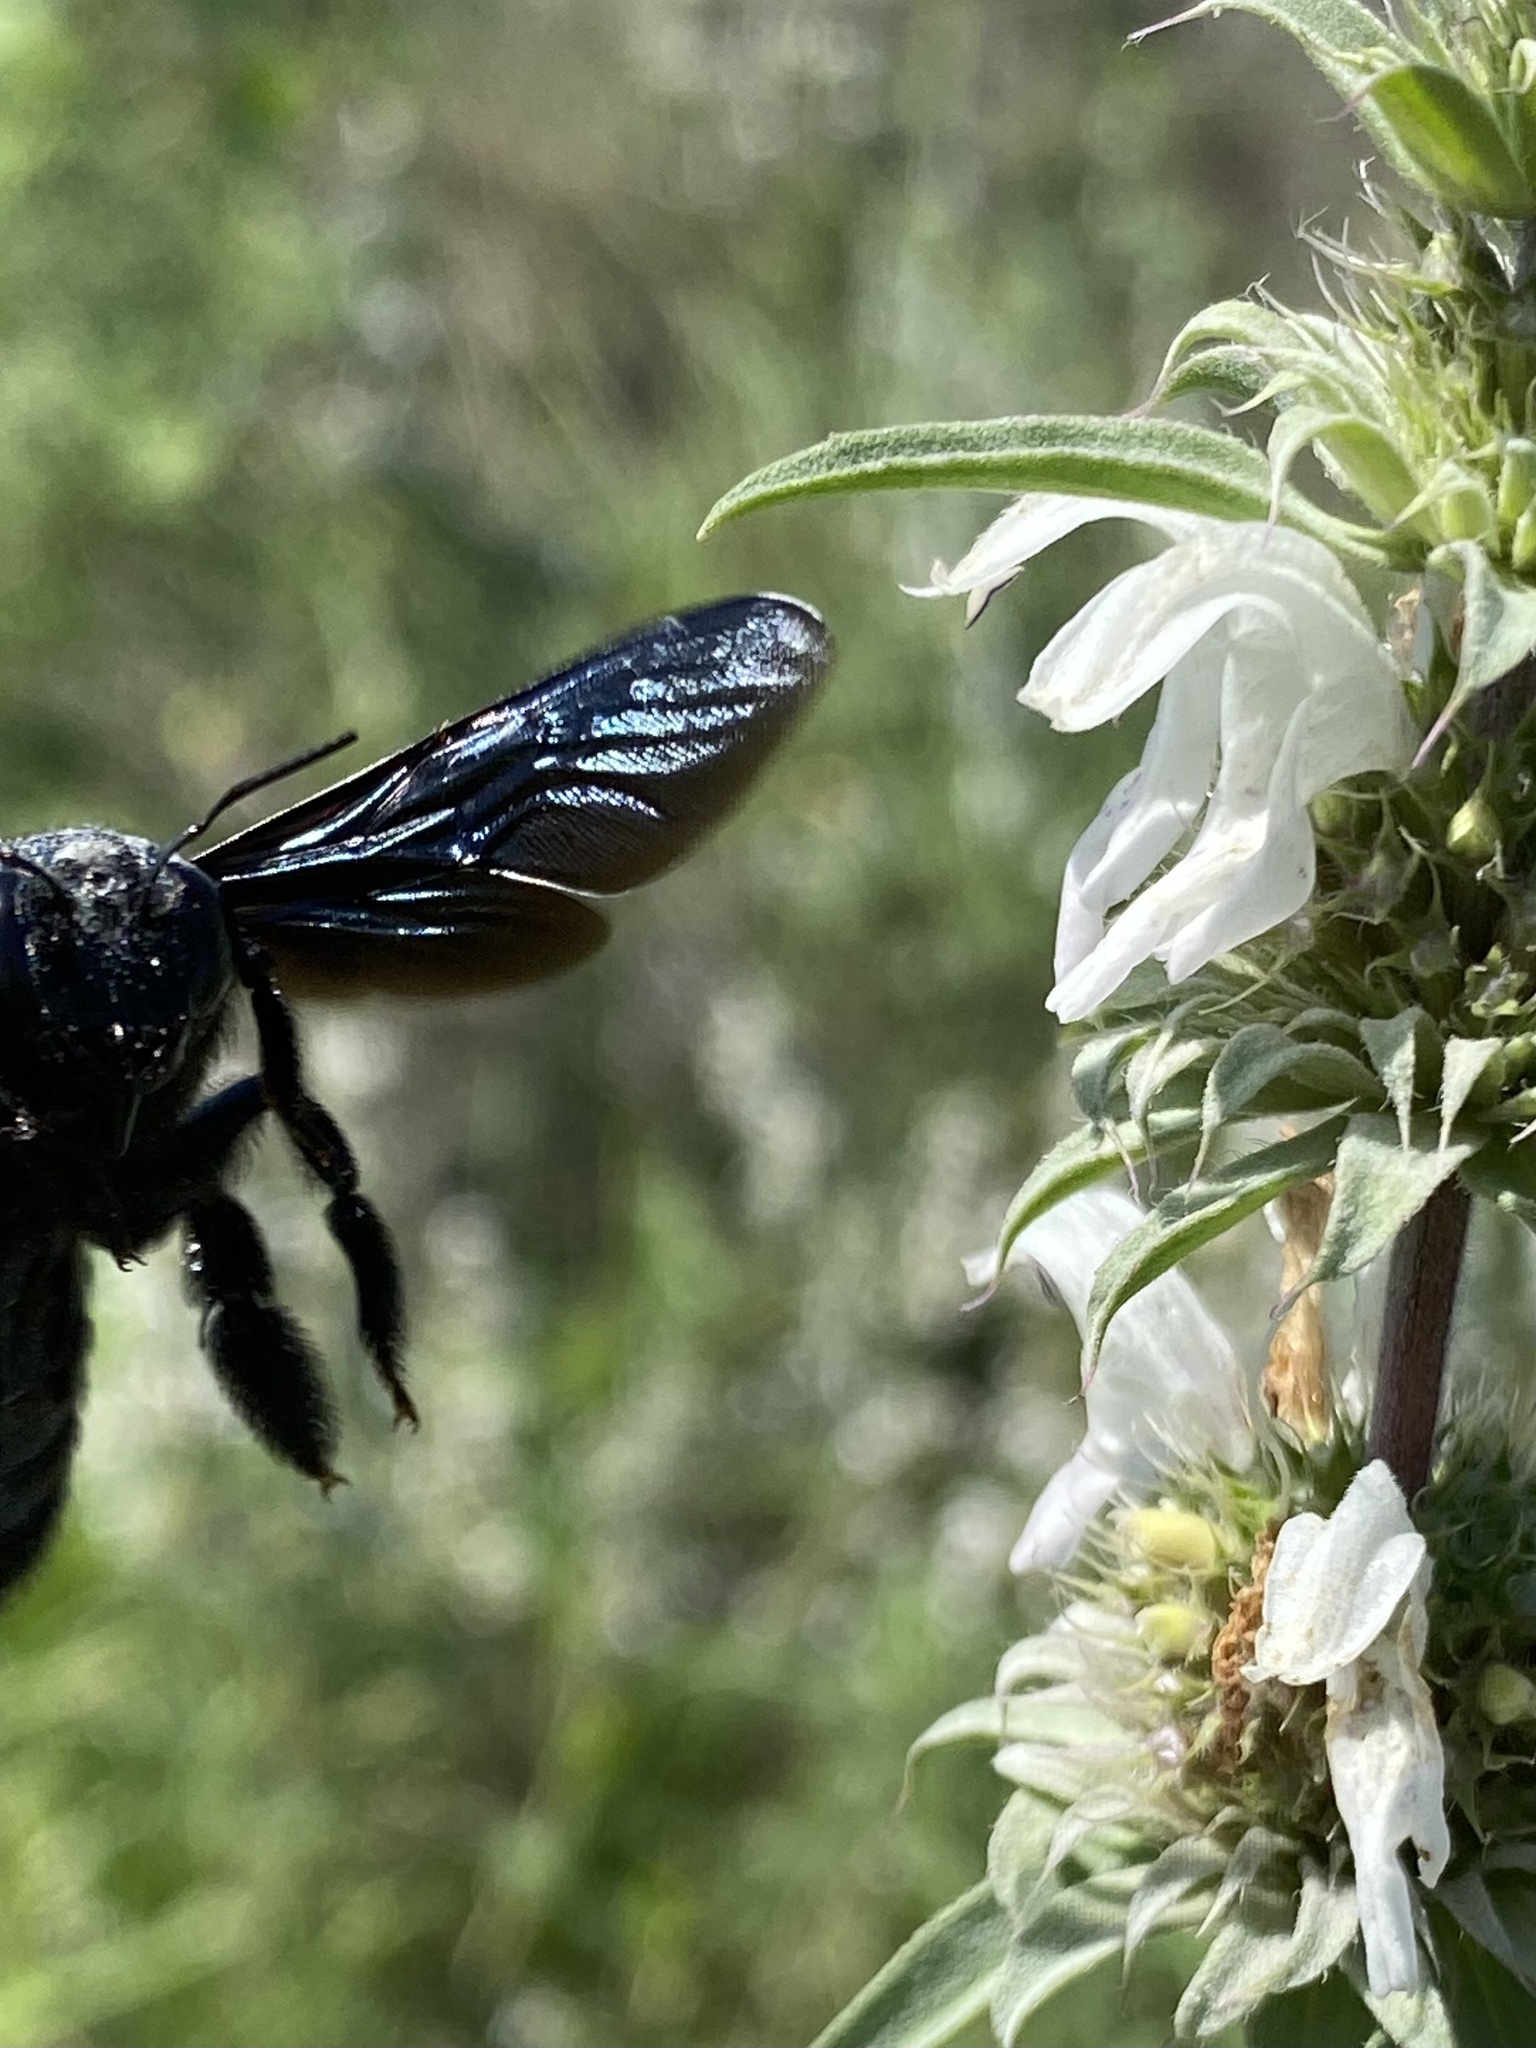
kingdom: Animalia
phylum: Arthropoda
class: Insecta
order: Hymenoptera
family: Apidae
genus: Xylocopa
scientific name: Xylocopa californica
